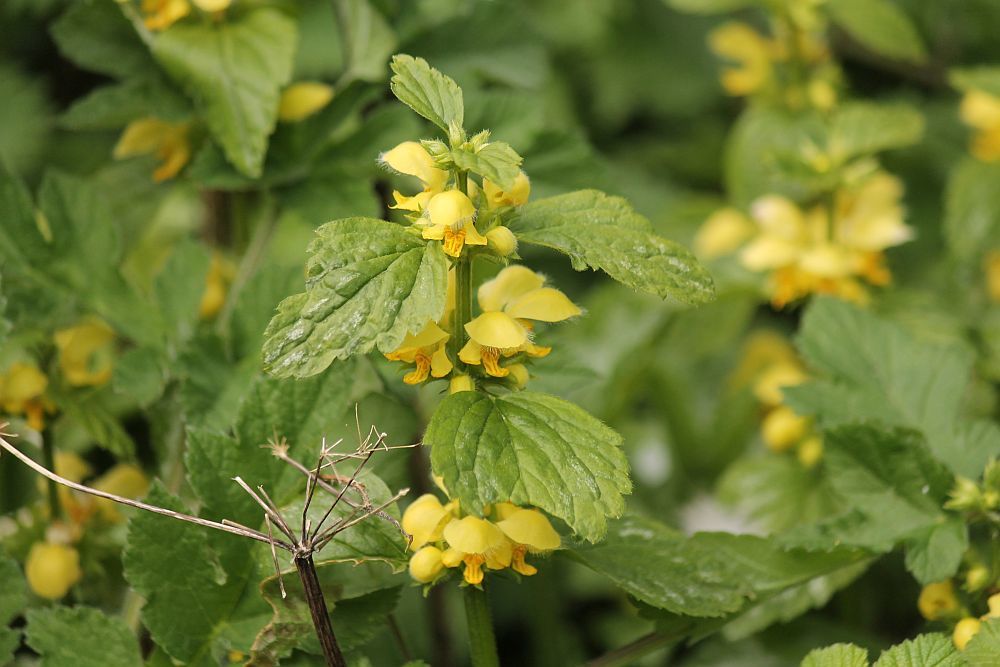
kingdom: Plantae
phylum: Tracheophyta
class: Magnoliopsida
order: Lamiales
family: Lamiaceae
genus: Lamium
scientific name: Lamium galeobdolon
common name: Yellow archangel
